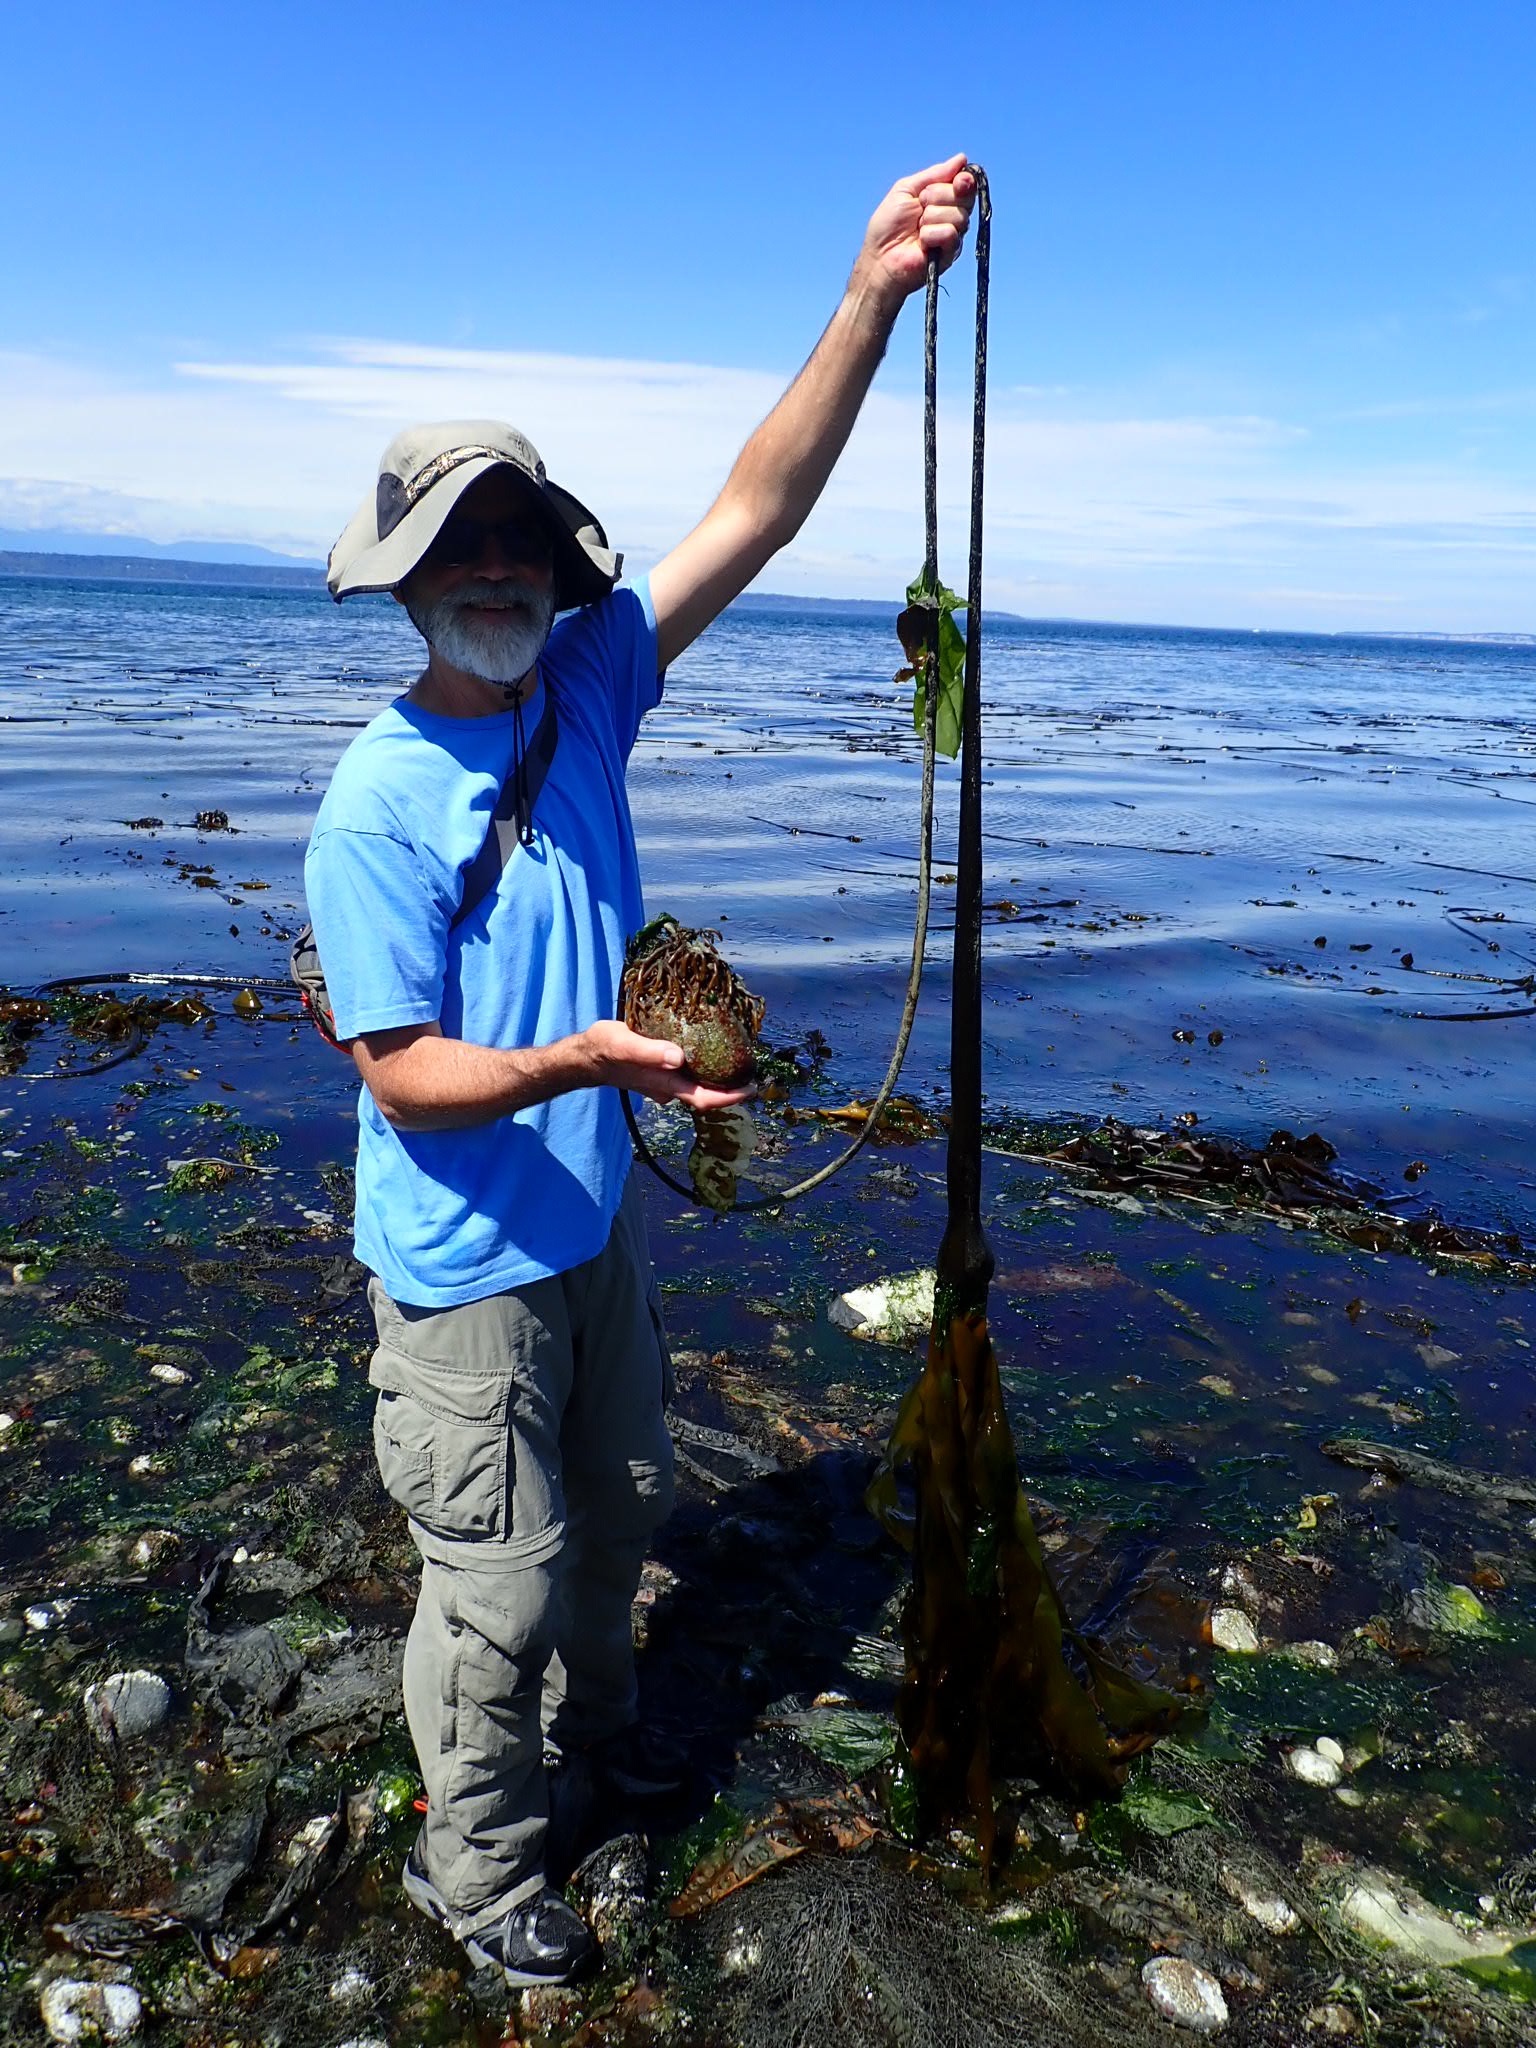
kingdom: Chromista
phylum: Ochrophyta
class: Phaeophyceae
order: Laminariales
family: Laminariaceae
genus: Nereocystis
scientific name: Nereocystis luetkeana
